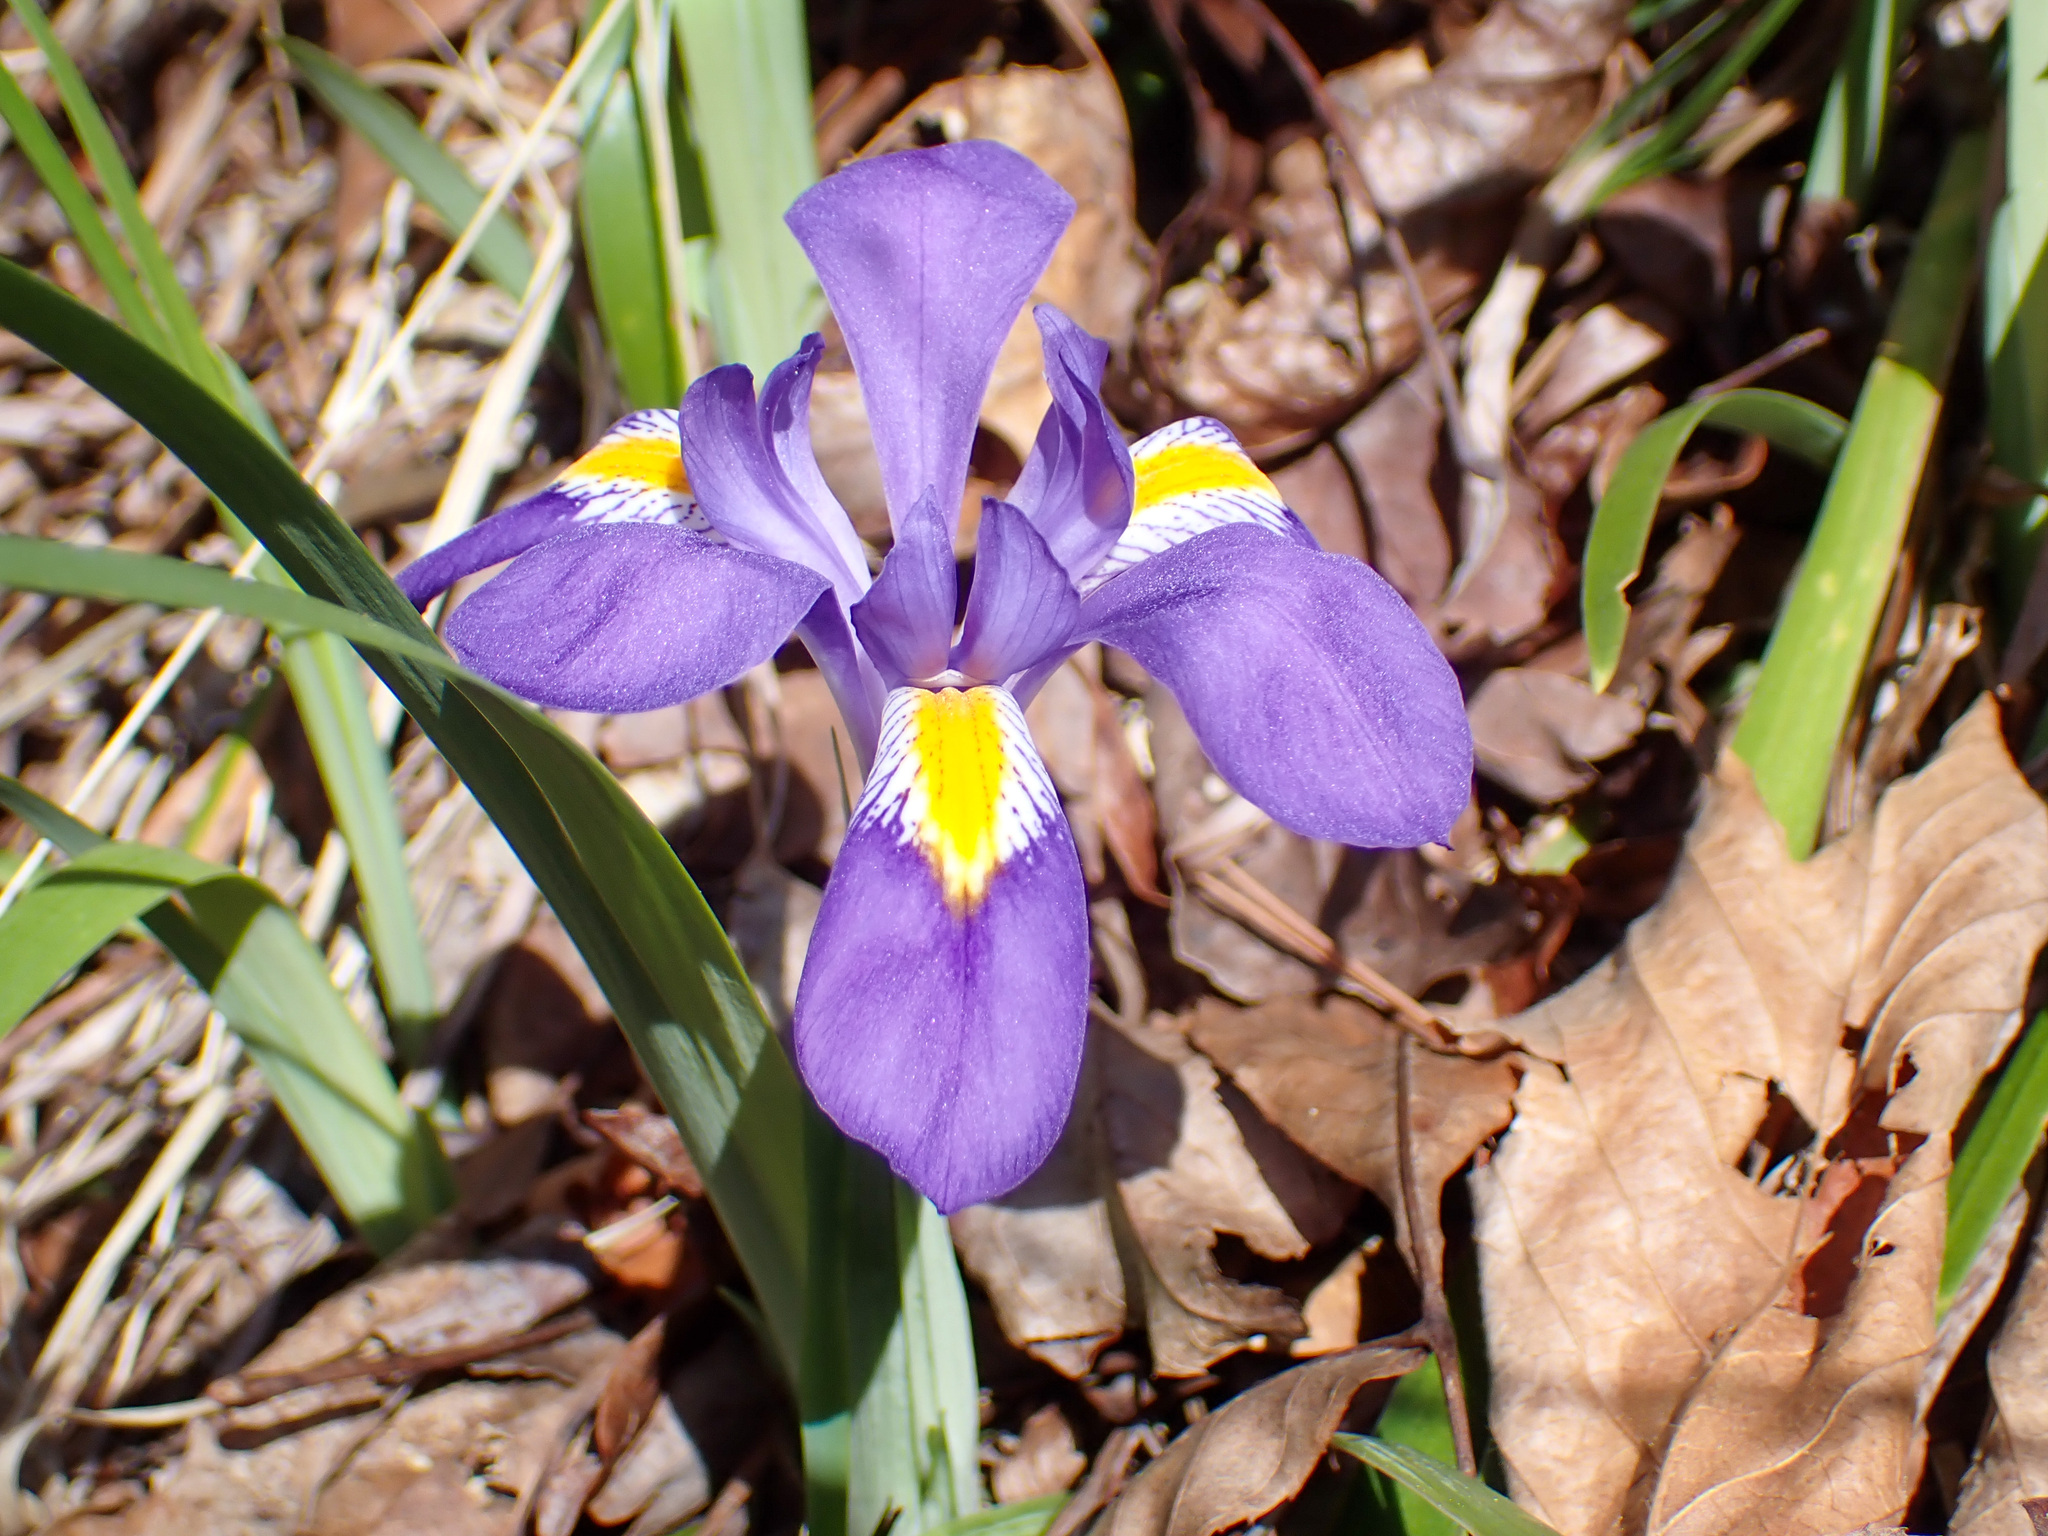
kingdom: Plantae
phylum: Tracheophyta
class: Liliopsida
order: Asparagales
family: Iridaceae
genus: Iris
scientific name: Iris verna
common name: Dwarf iris
